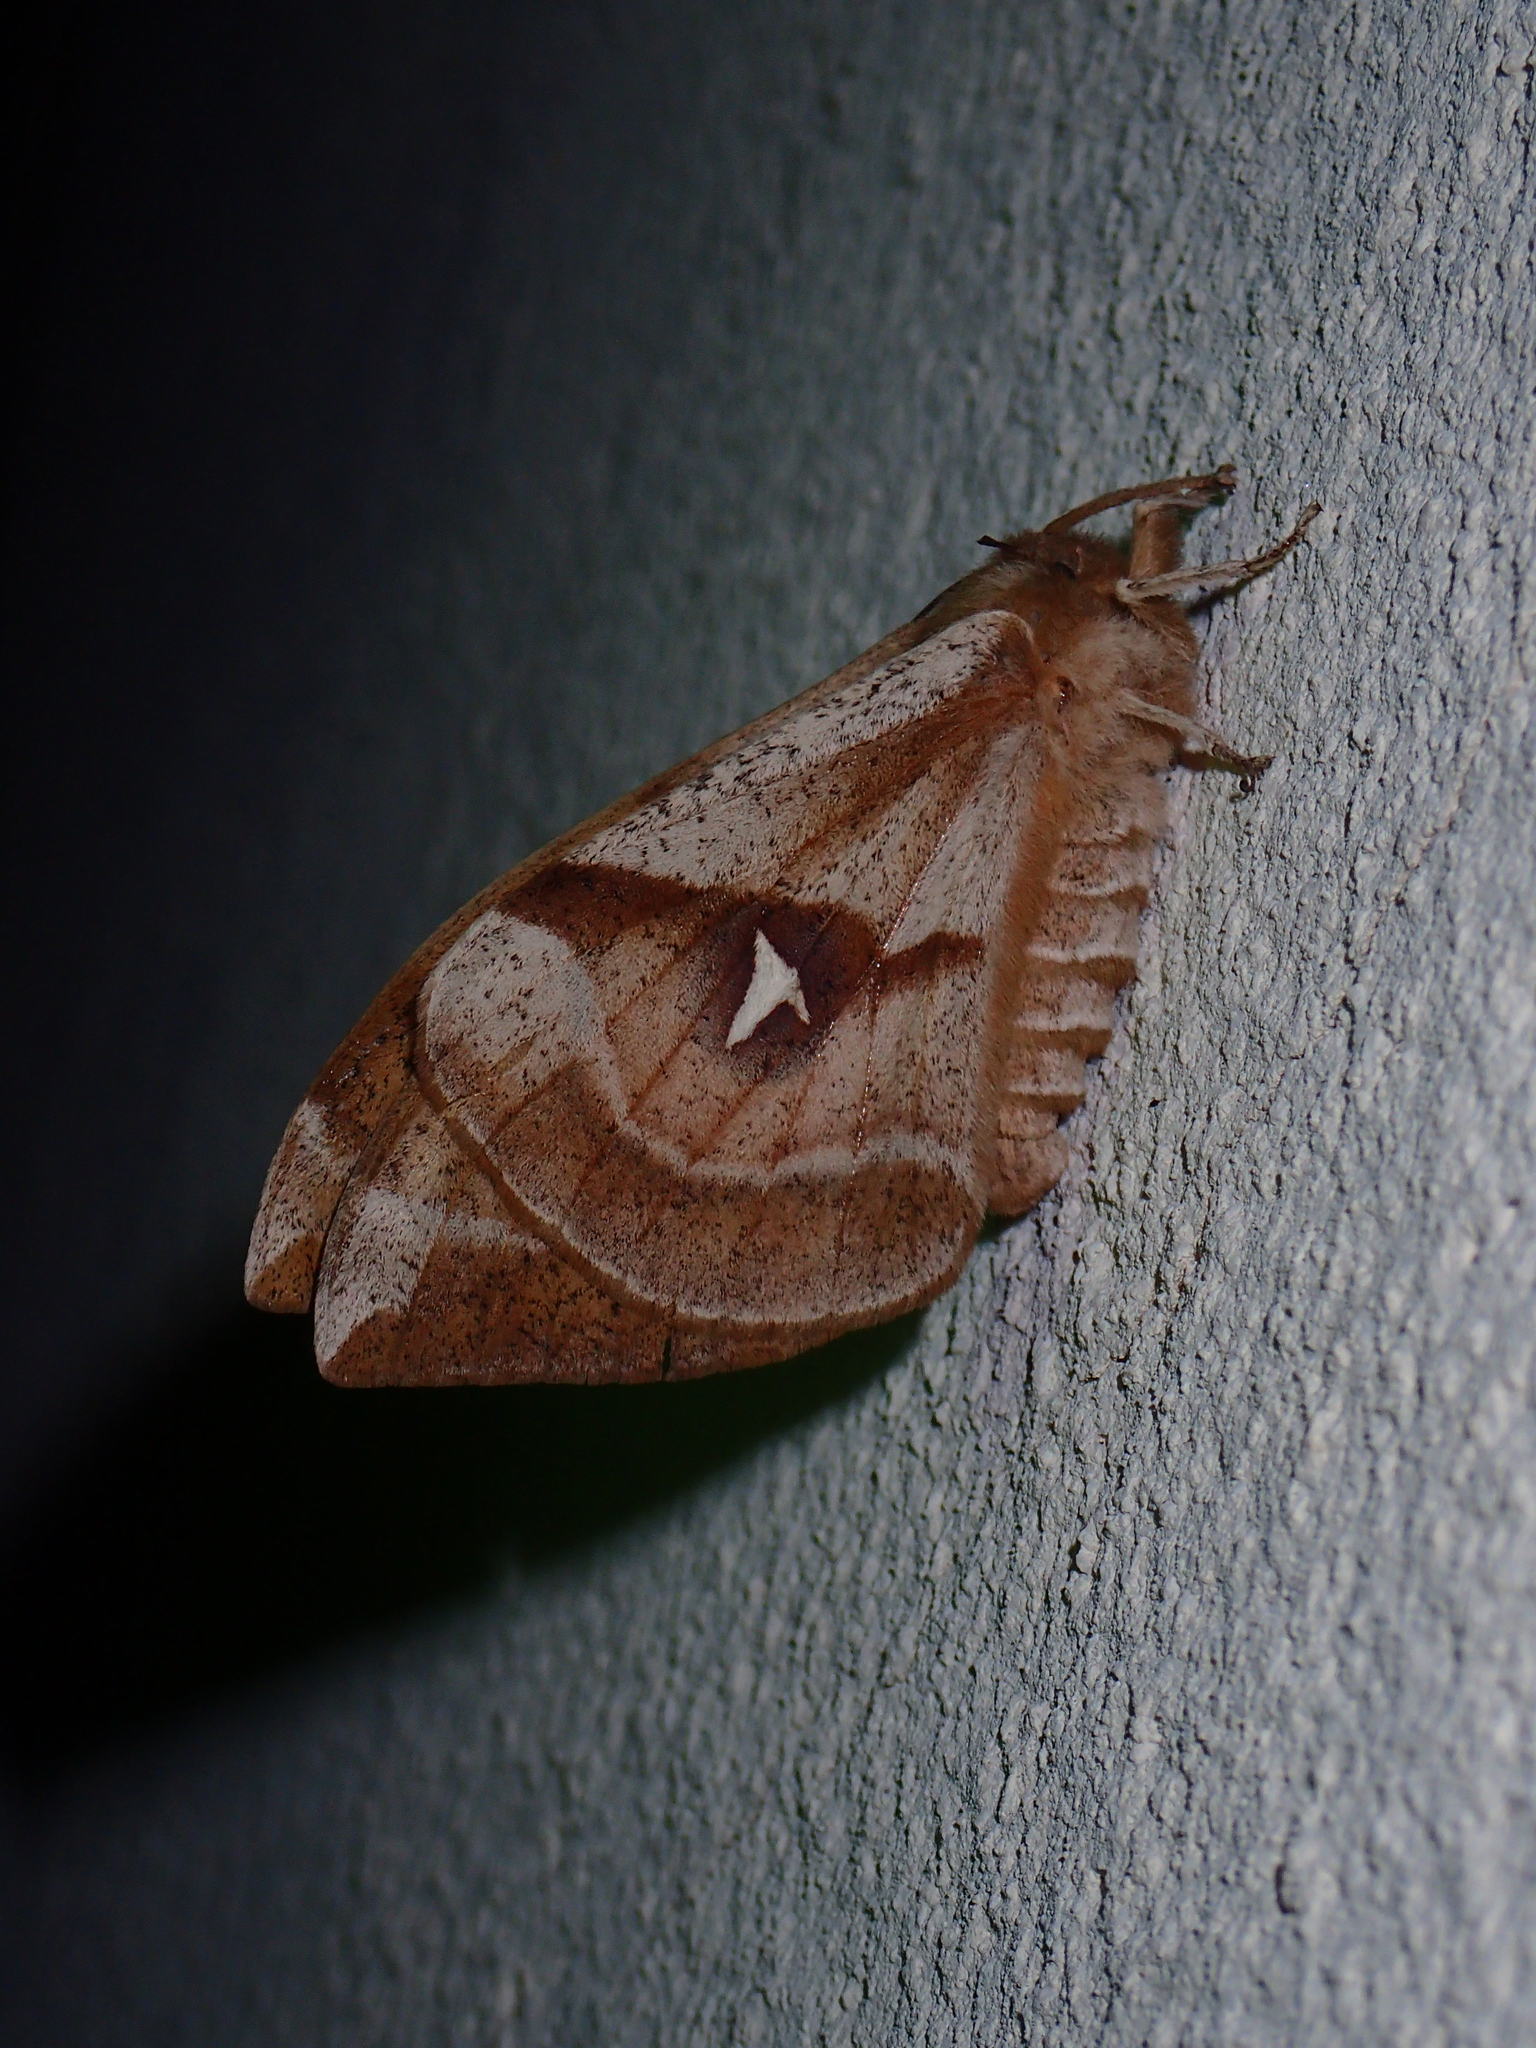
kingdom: Animalia
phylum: Arthropoda
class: Insecta
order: Lepidoptera
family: Saturniidae
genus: Aglia
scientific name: Aglia tau
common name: Tau emperor
